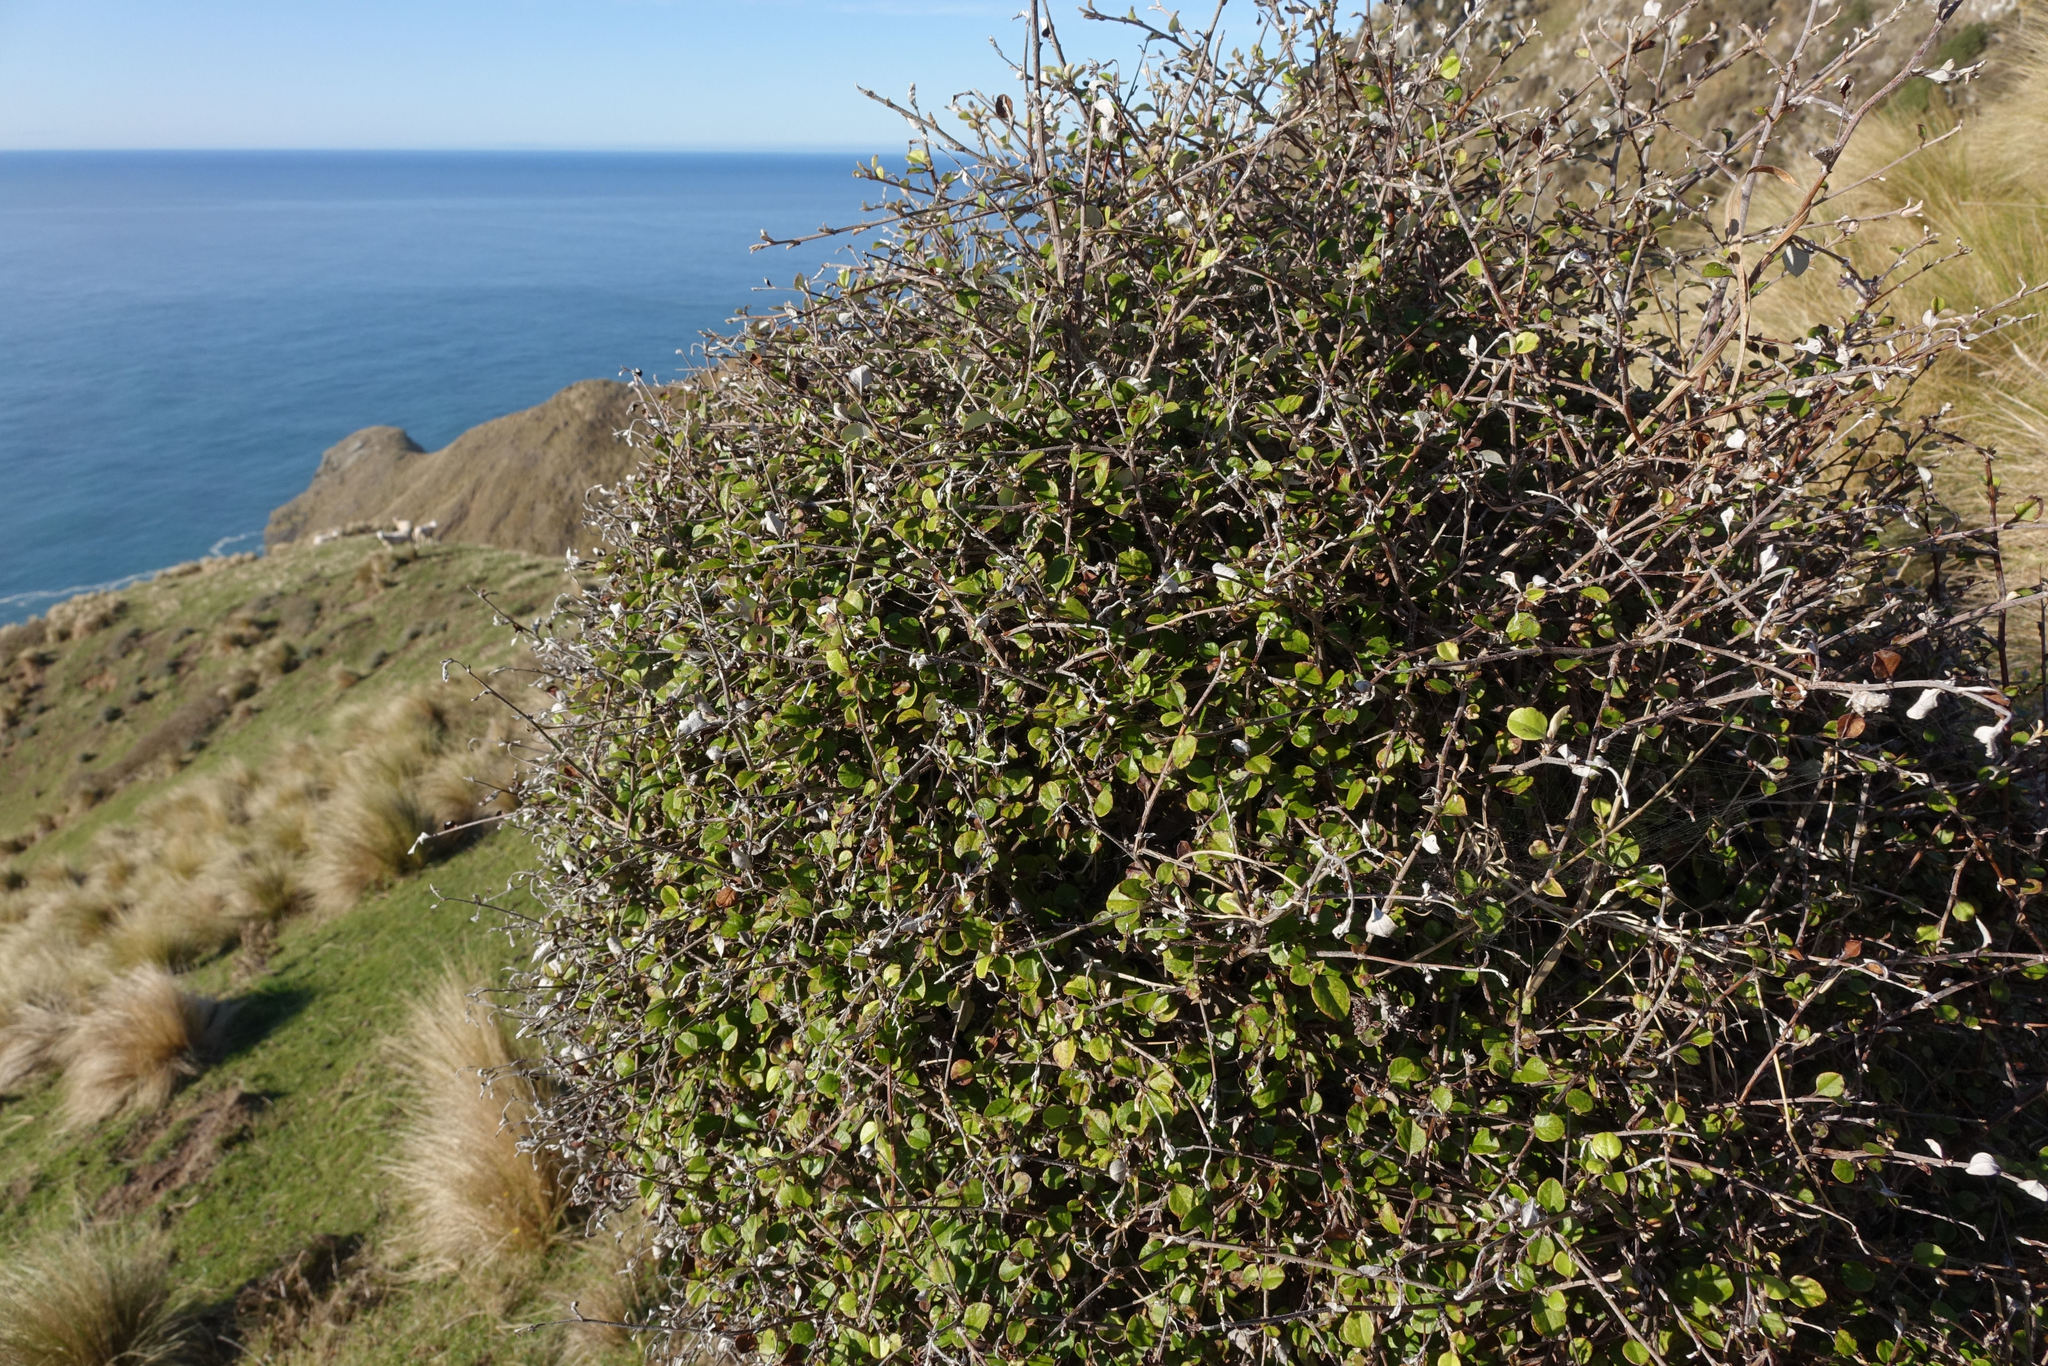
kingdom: Plantae
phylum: Tracheophyta
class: Magnoliopsida
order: Asterales
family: Asteraceae
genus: Ozothamnus
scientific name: Ozothamnus glomeratus
